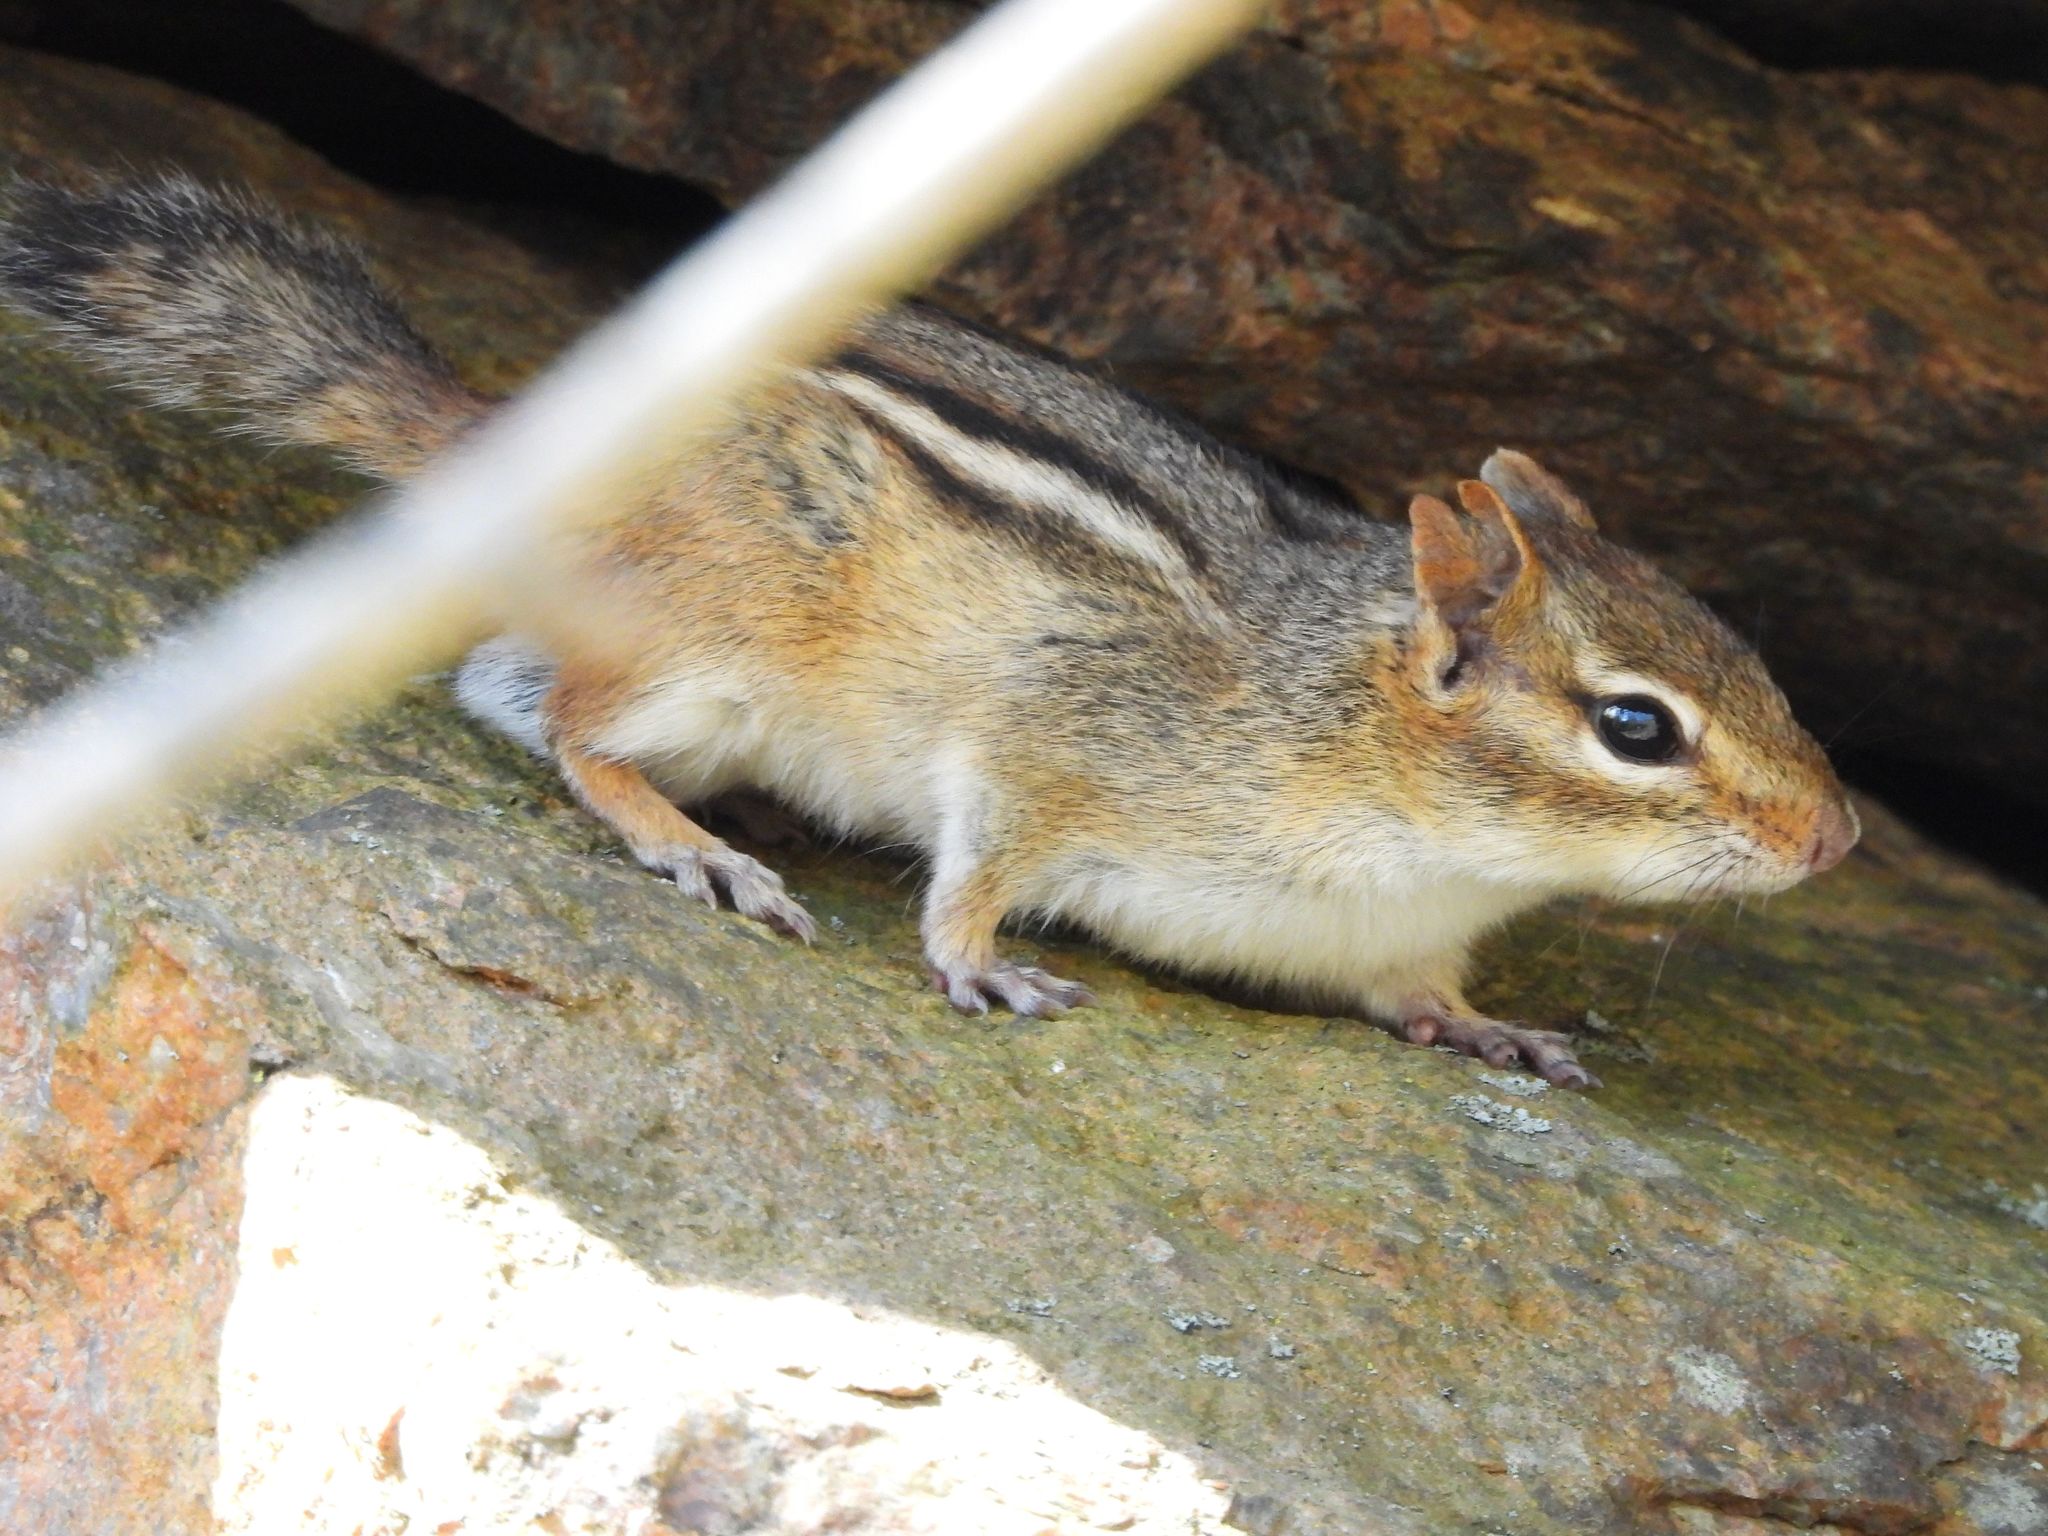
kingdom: Animalia
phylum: Chordata
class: Mammalia
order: Rodentia
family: Sciuridae
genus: Tamias
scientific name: Tamias striatus
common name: Eastern chipmunk
